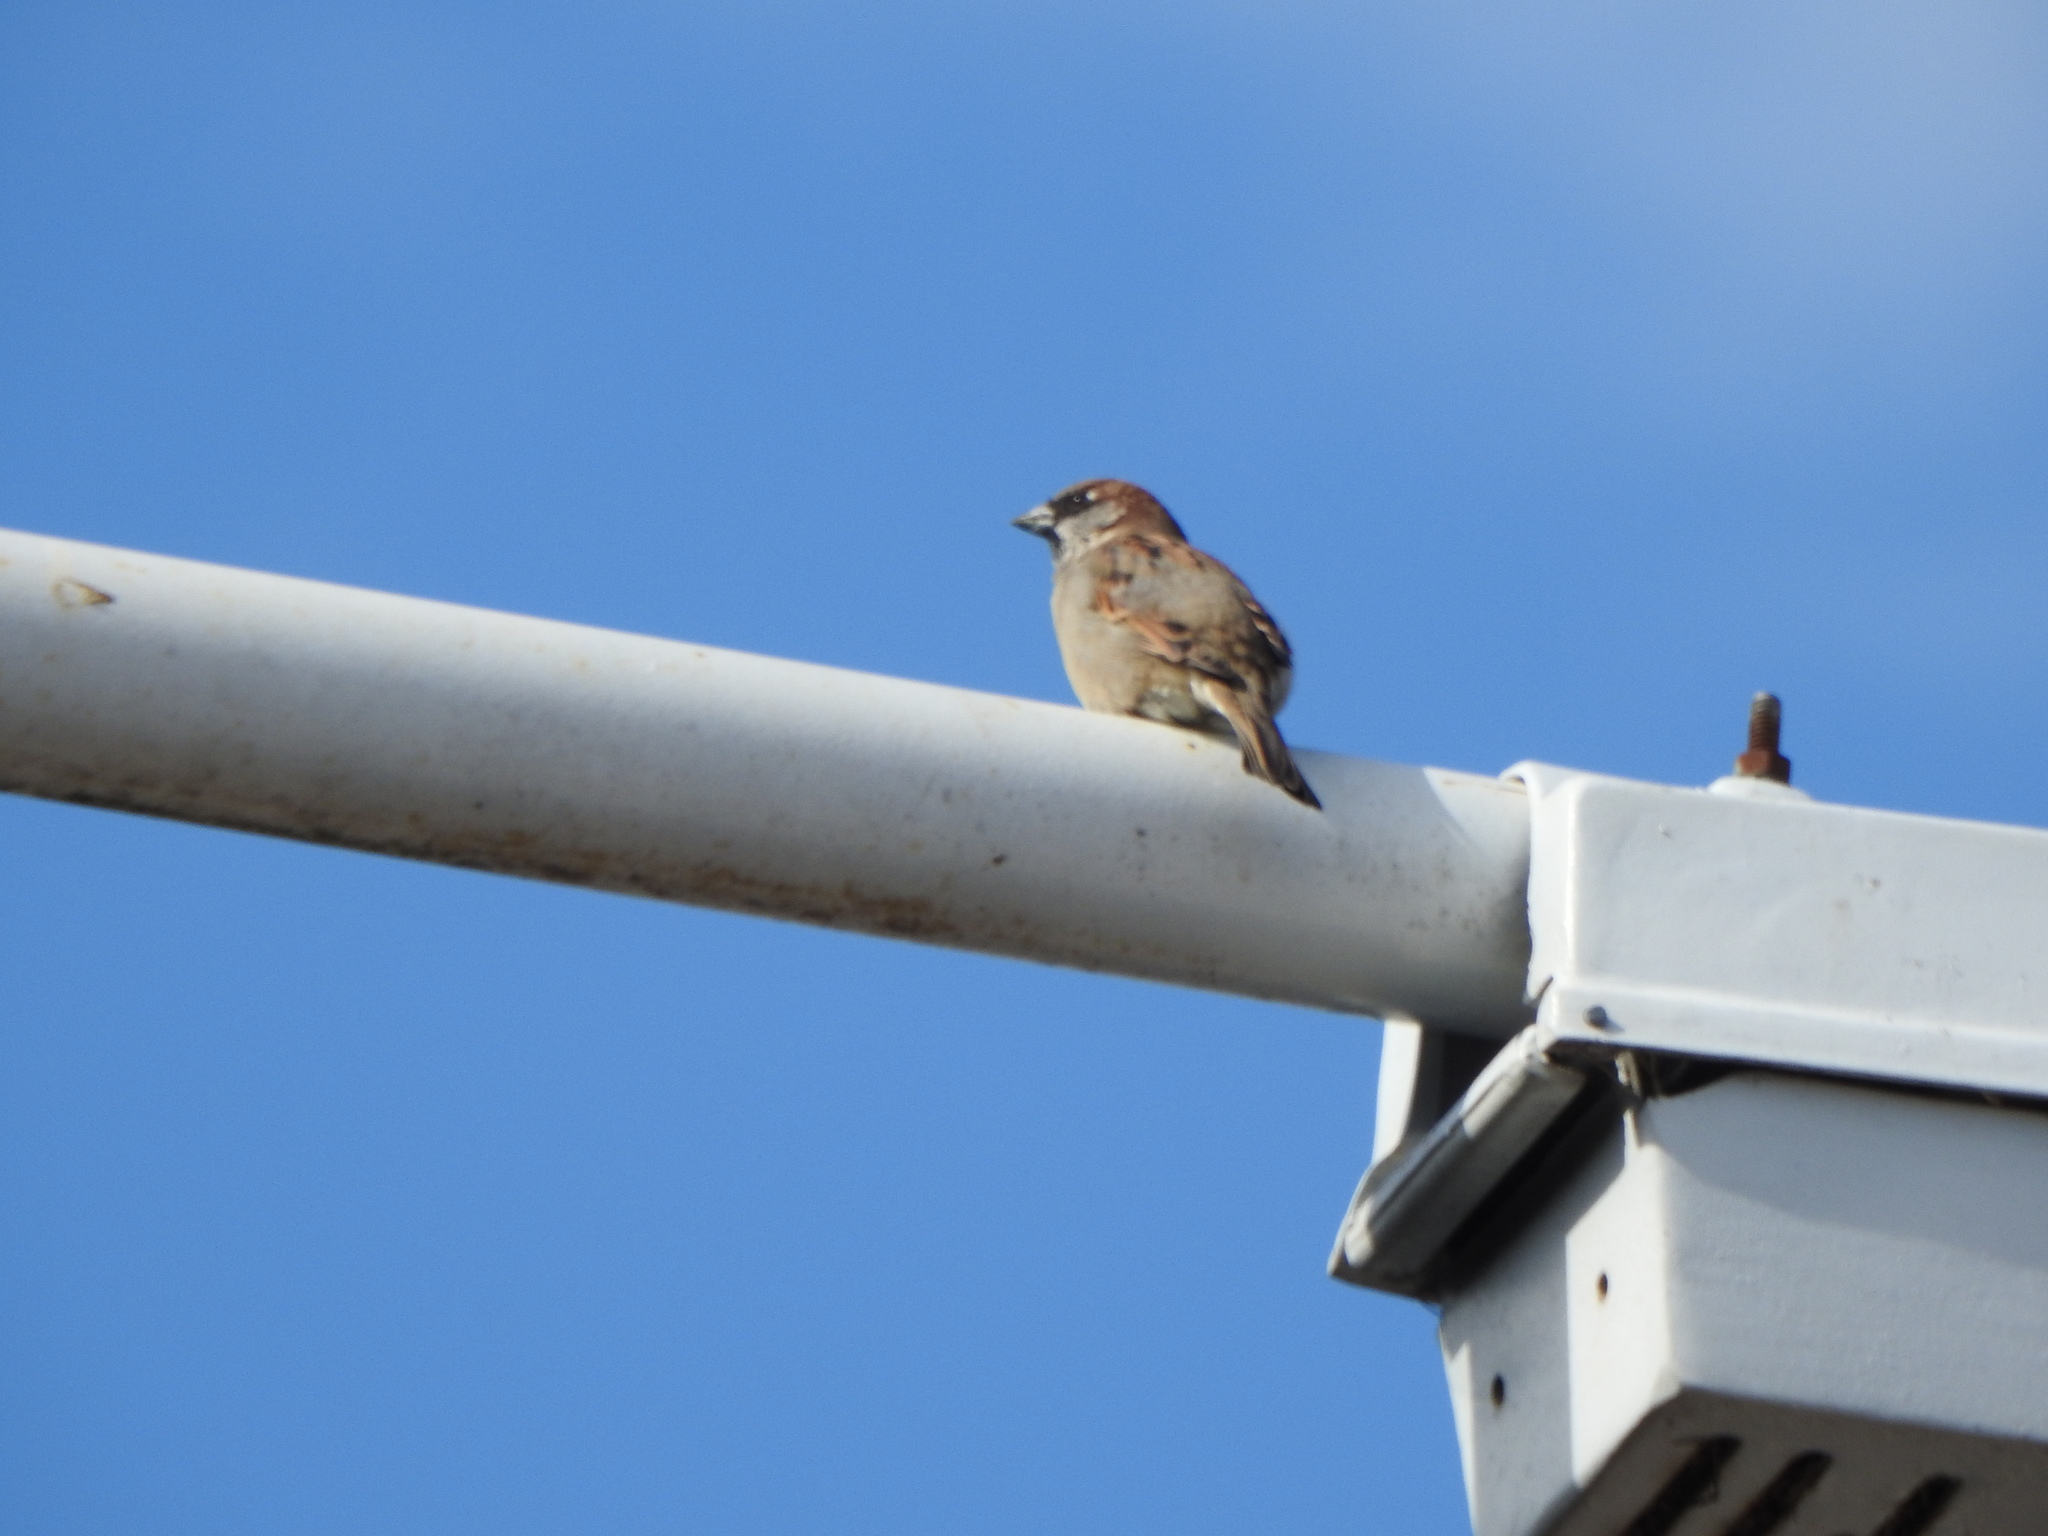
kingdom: Animalia
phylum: Chordata
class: Aves
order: Passeriformes
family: Passeridae
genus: Passer
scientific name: Passer domesticus
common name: House sparrow
